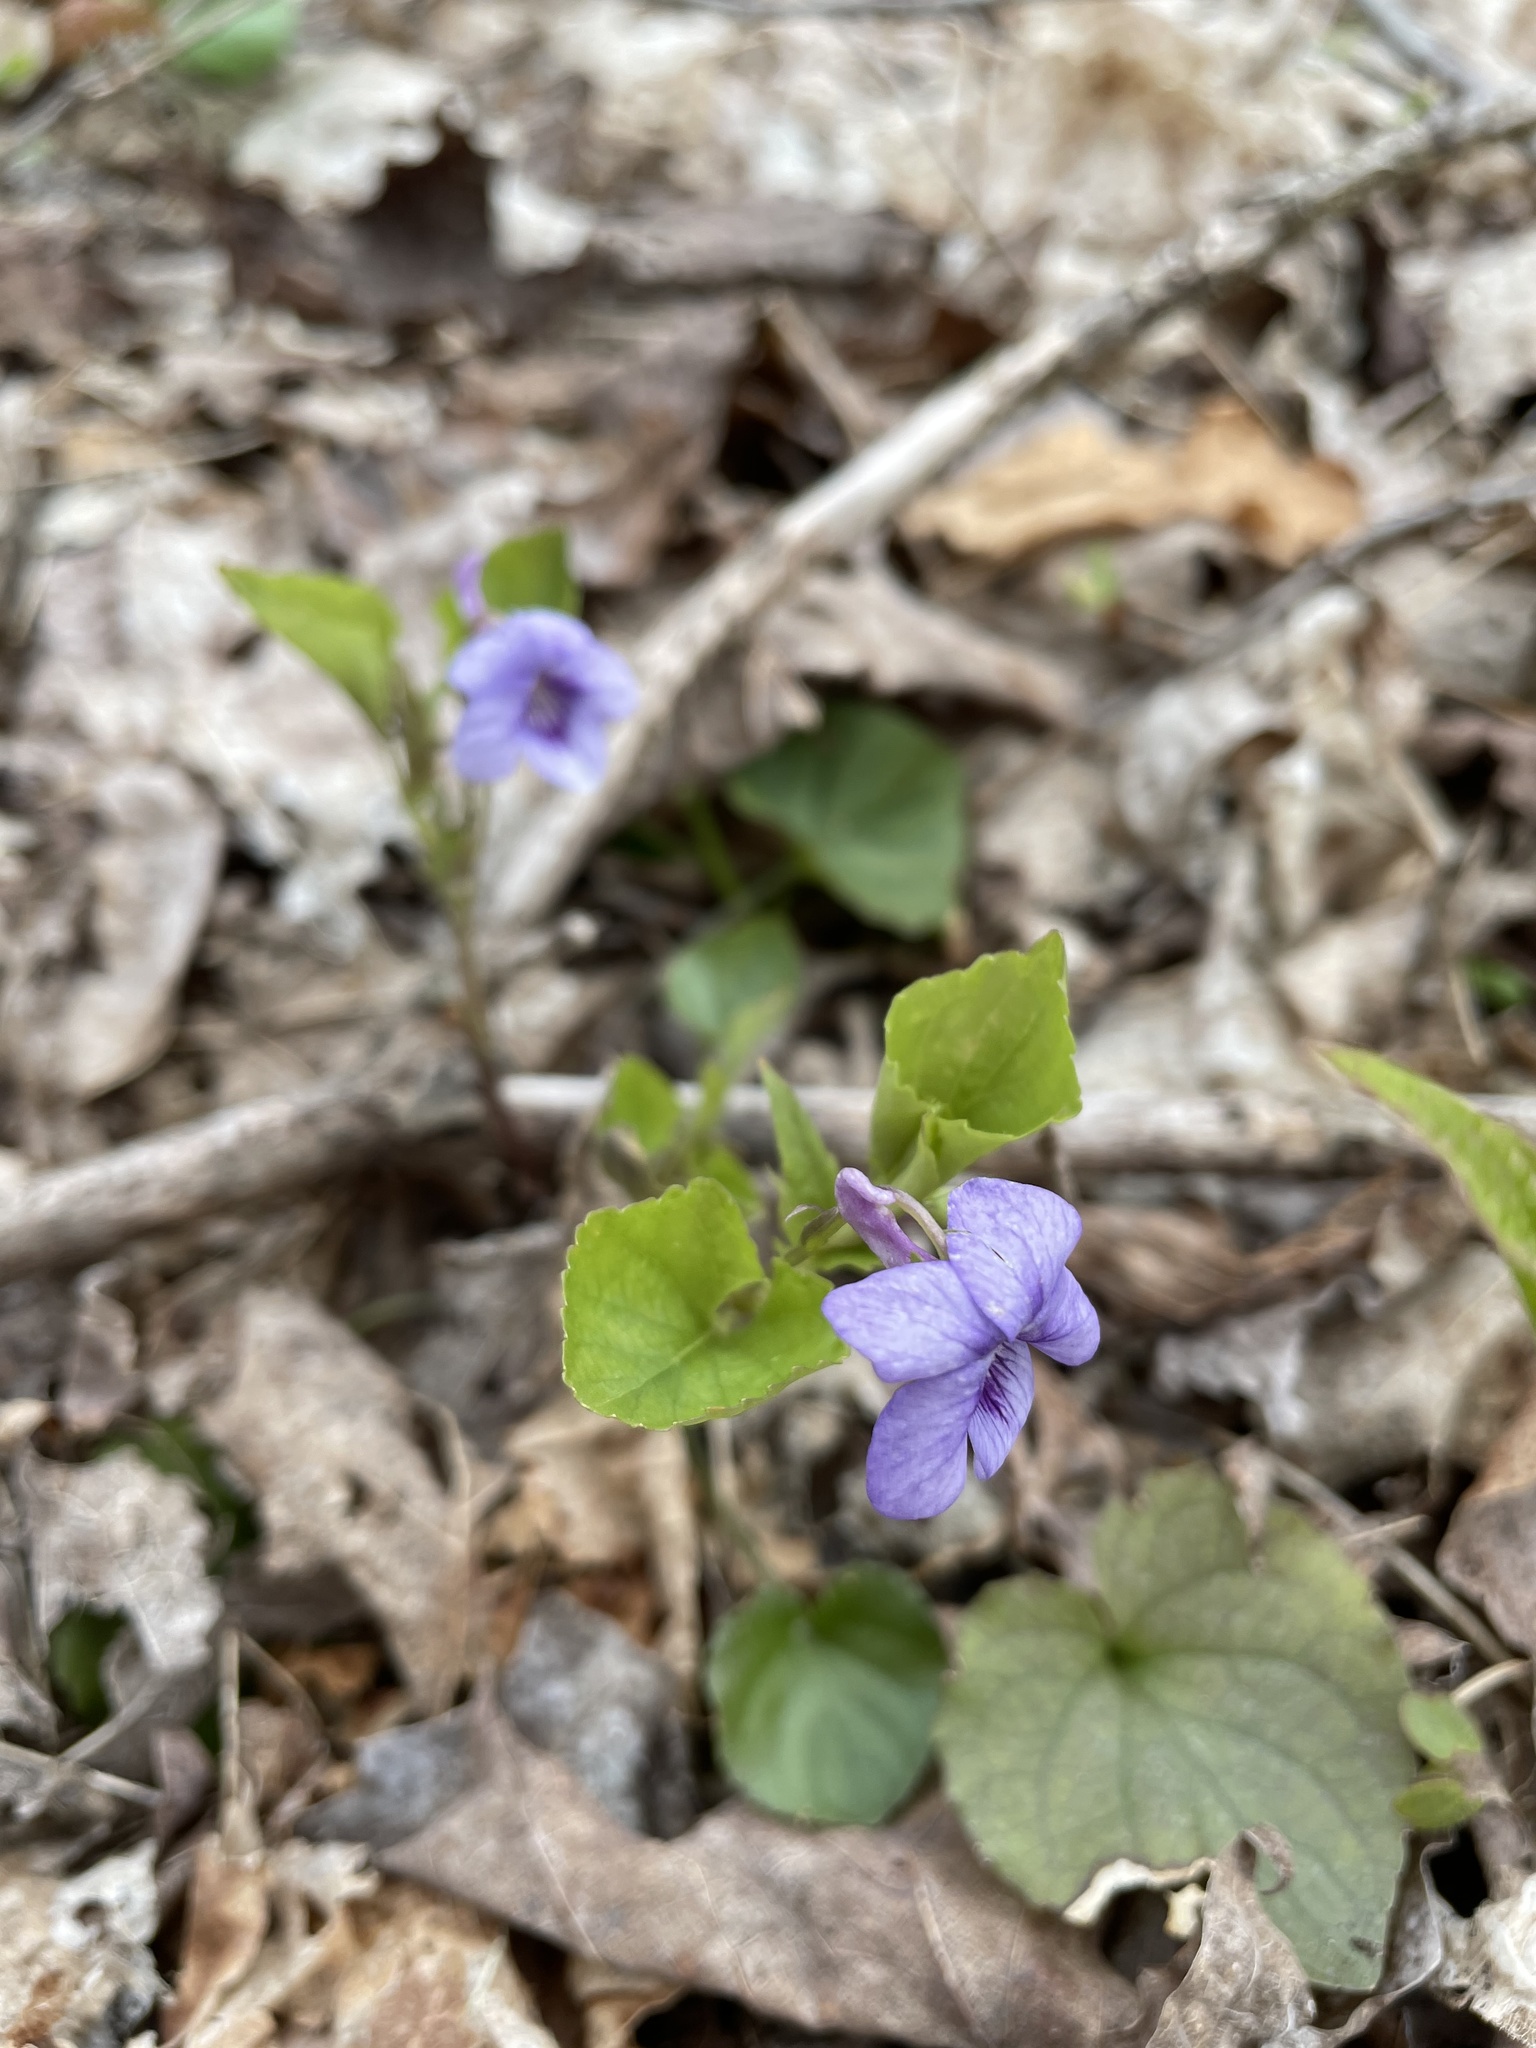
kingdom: Plantae
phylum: Tracheophyta
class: Magnoliopsida
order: Malpighiales
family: Violaceae
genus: Viola
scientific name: Viola rostrata
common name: Long-spur violet
